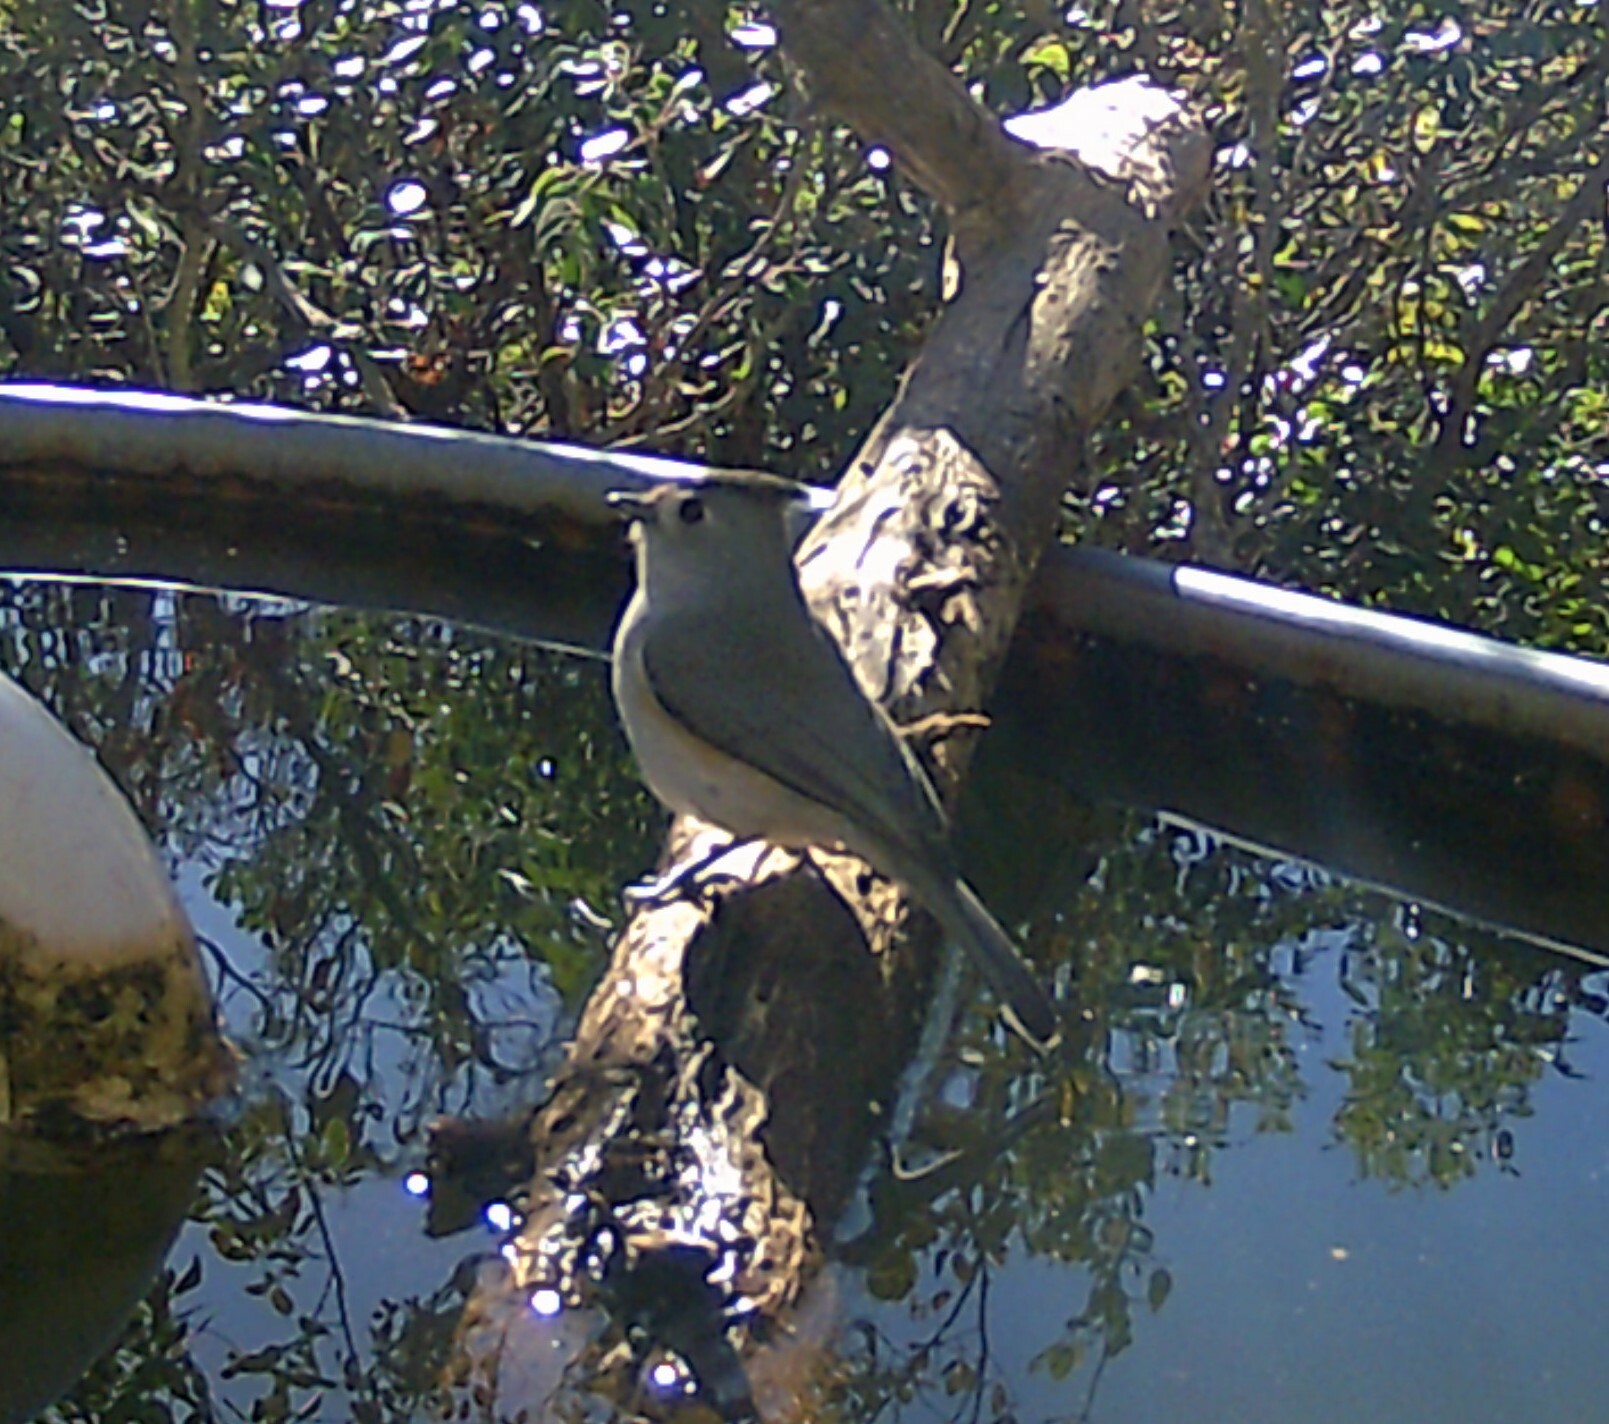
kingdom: Animalia
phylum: Chordata
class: Aves
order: Passeriformes
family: Paridae
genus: Baeolophus
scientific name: Baeolophus atricristatus
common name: Black-crested titmouse
